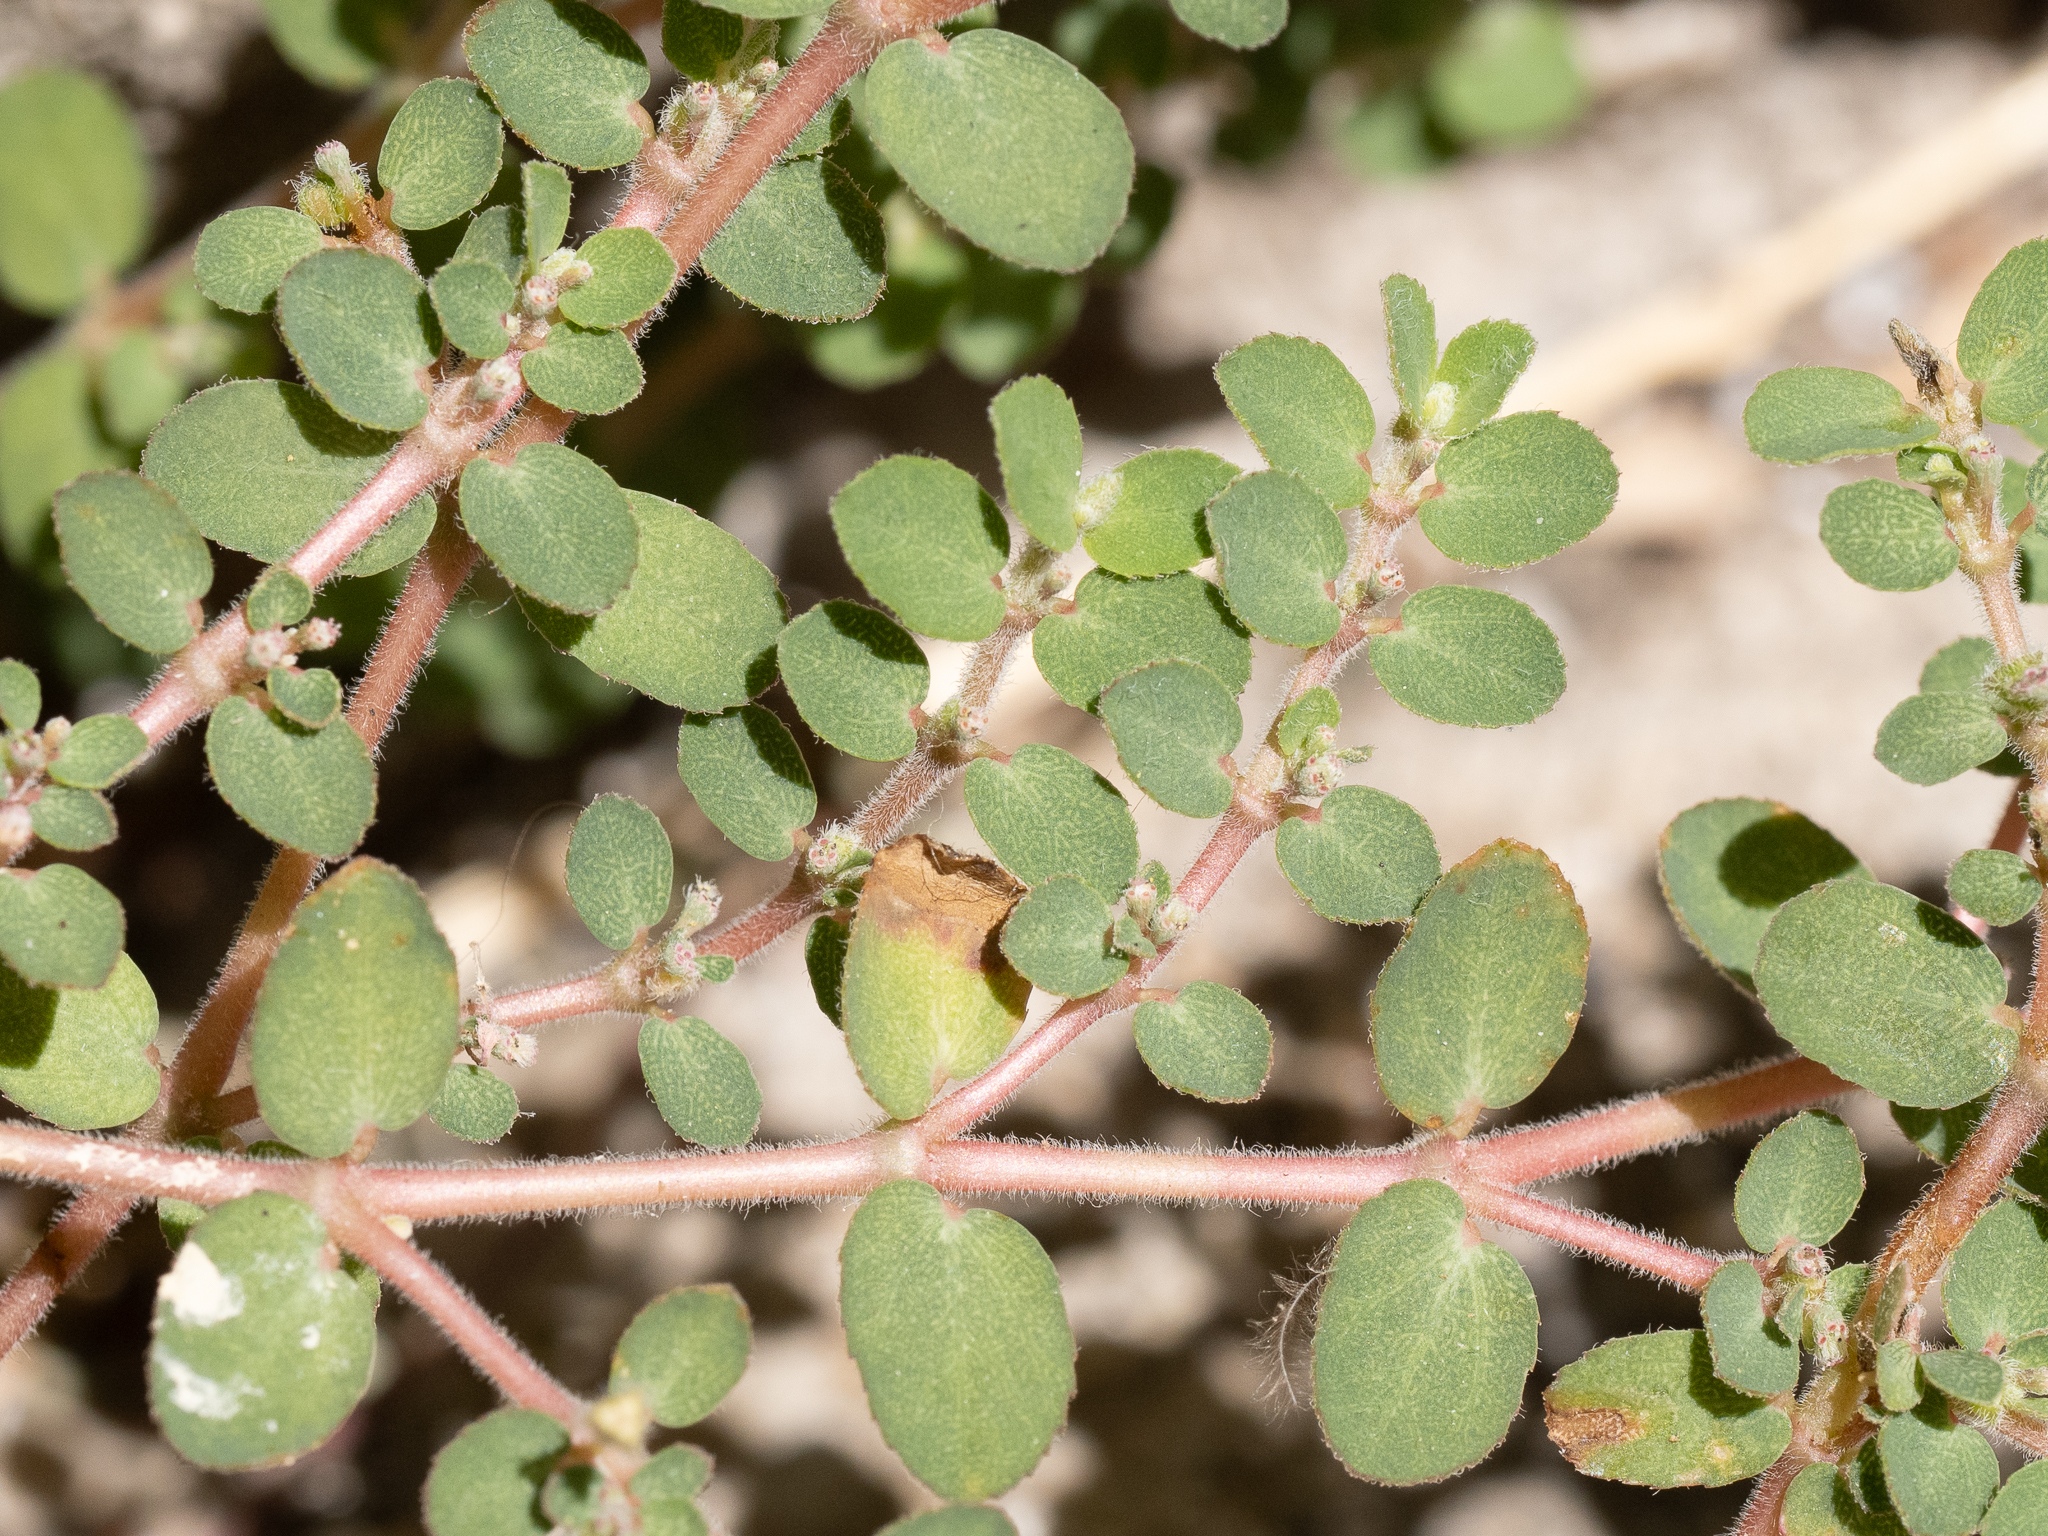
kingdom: Plantae
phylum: Tracheophyta
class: Magnoliopsida
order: Malpighiales
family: Euphorbiaceae
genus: Euphorbia
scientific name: Euphorbia prostrata
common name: Prostrate sandmat
